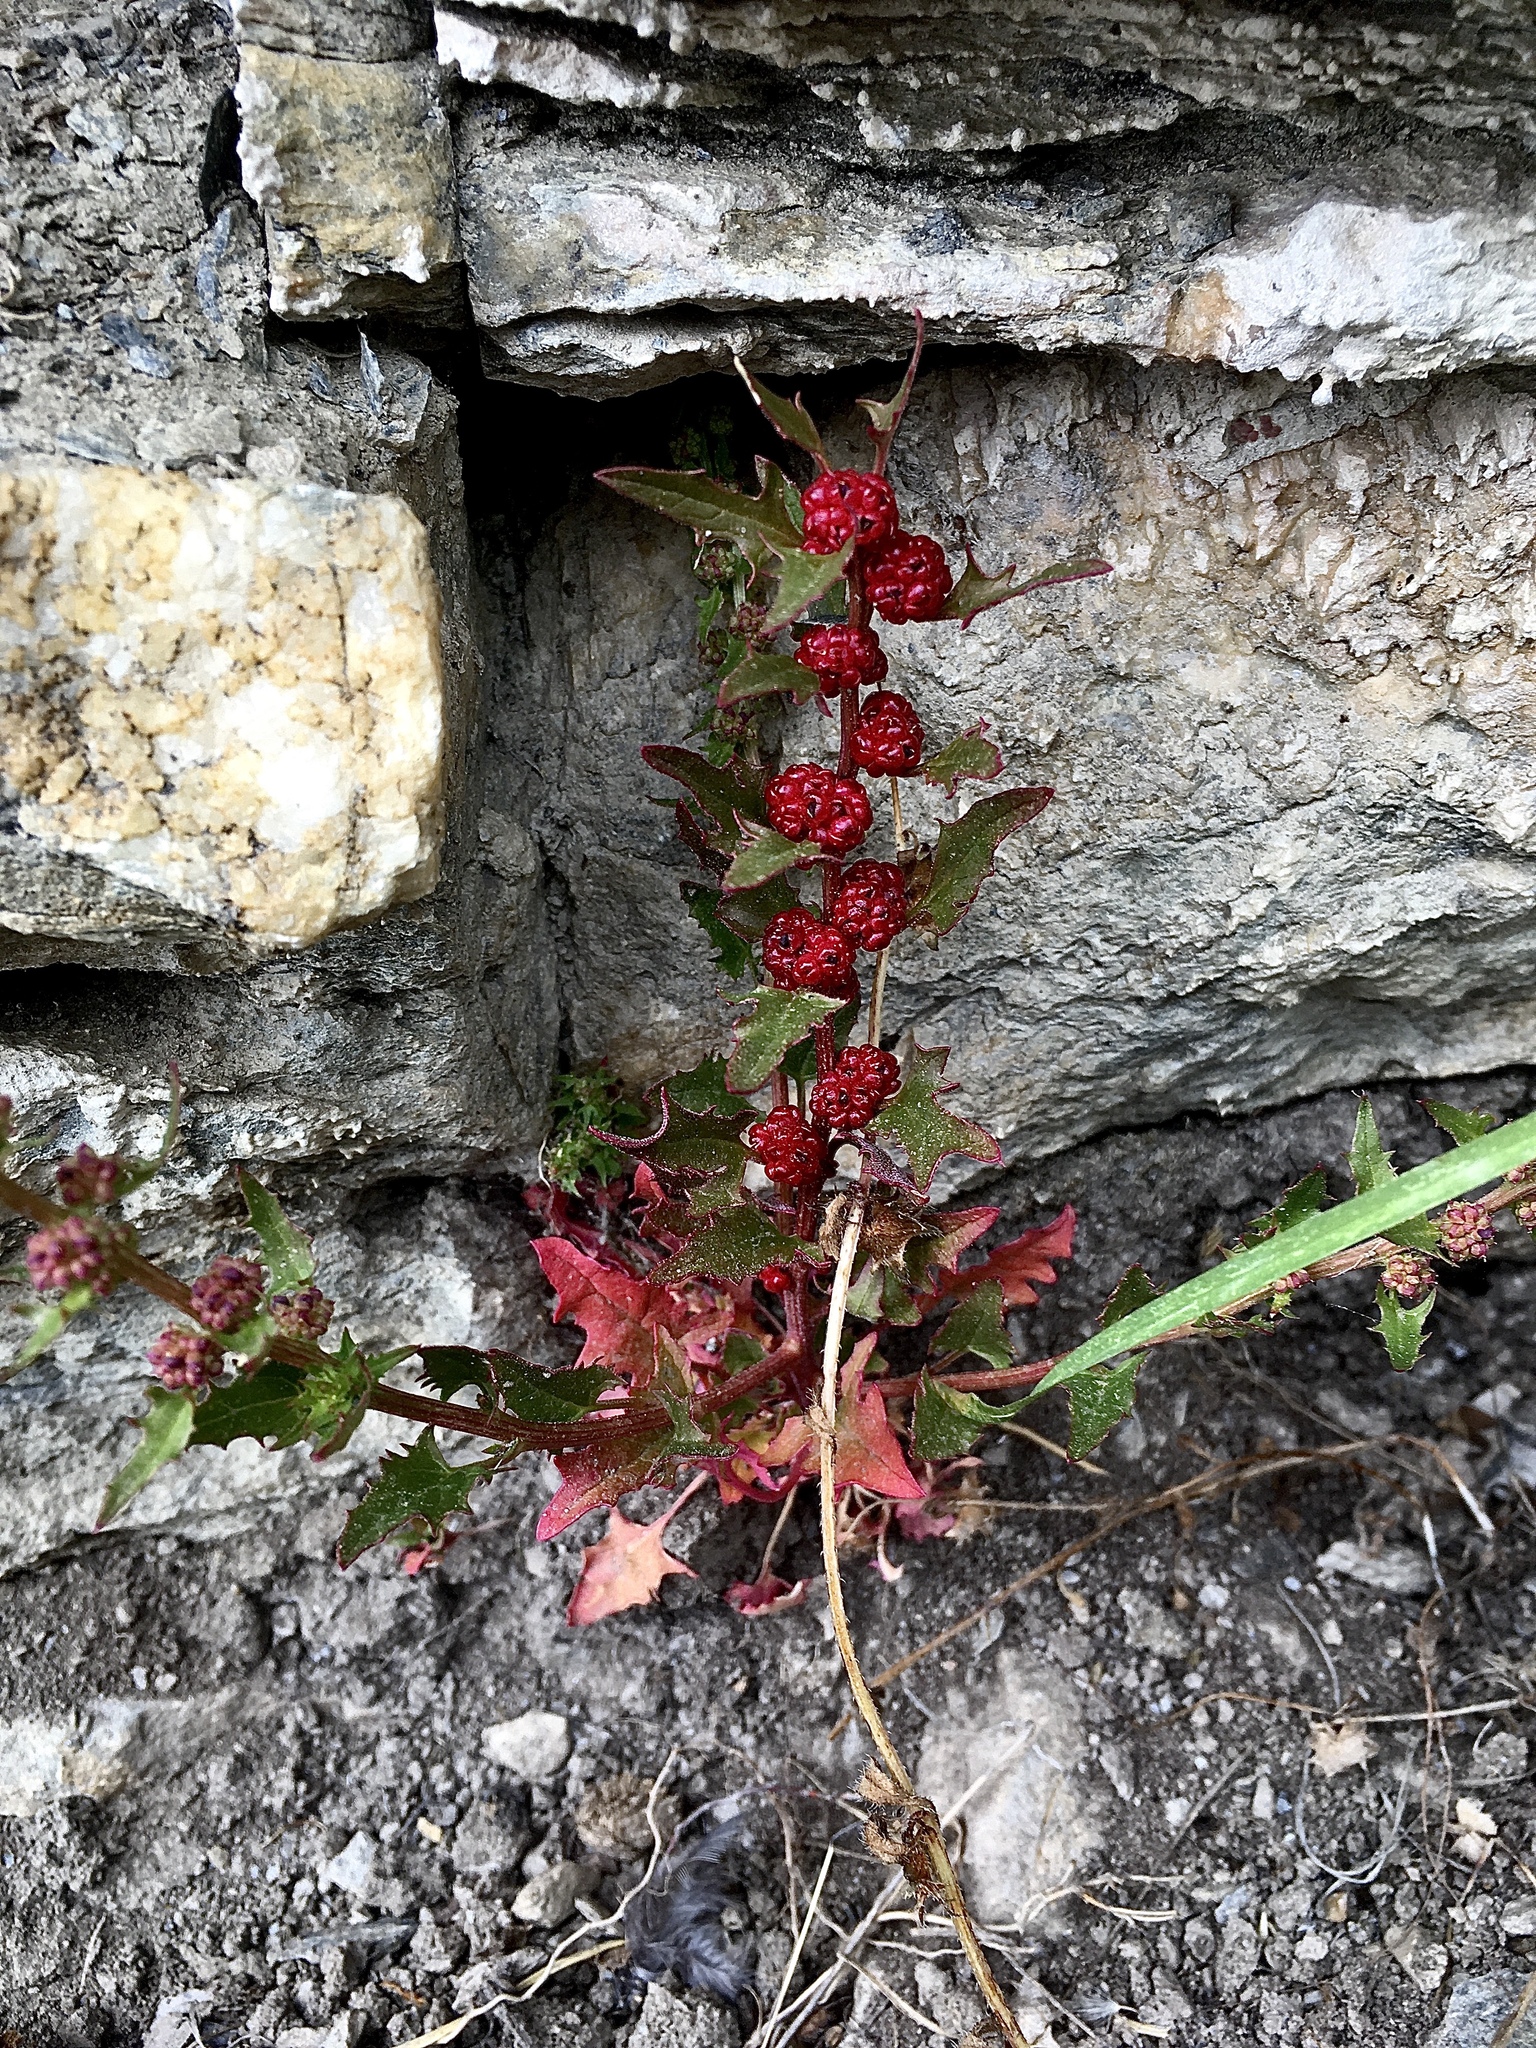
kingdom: Plantae
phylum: Tracheophyta
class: Magnoliopsida
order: Caryophyllales
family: Amaranthaceae
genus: Blitum
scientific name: Blitum virgatum
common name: Strawberry goosefoot
